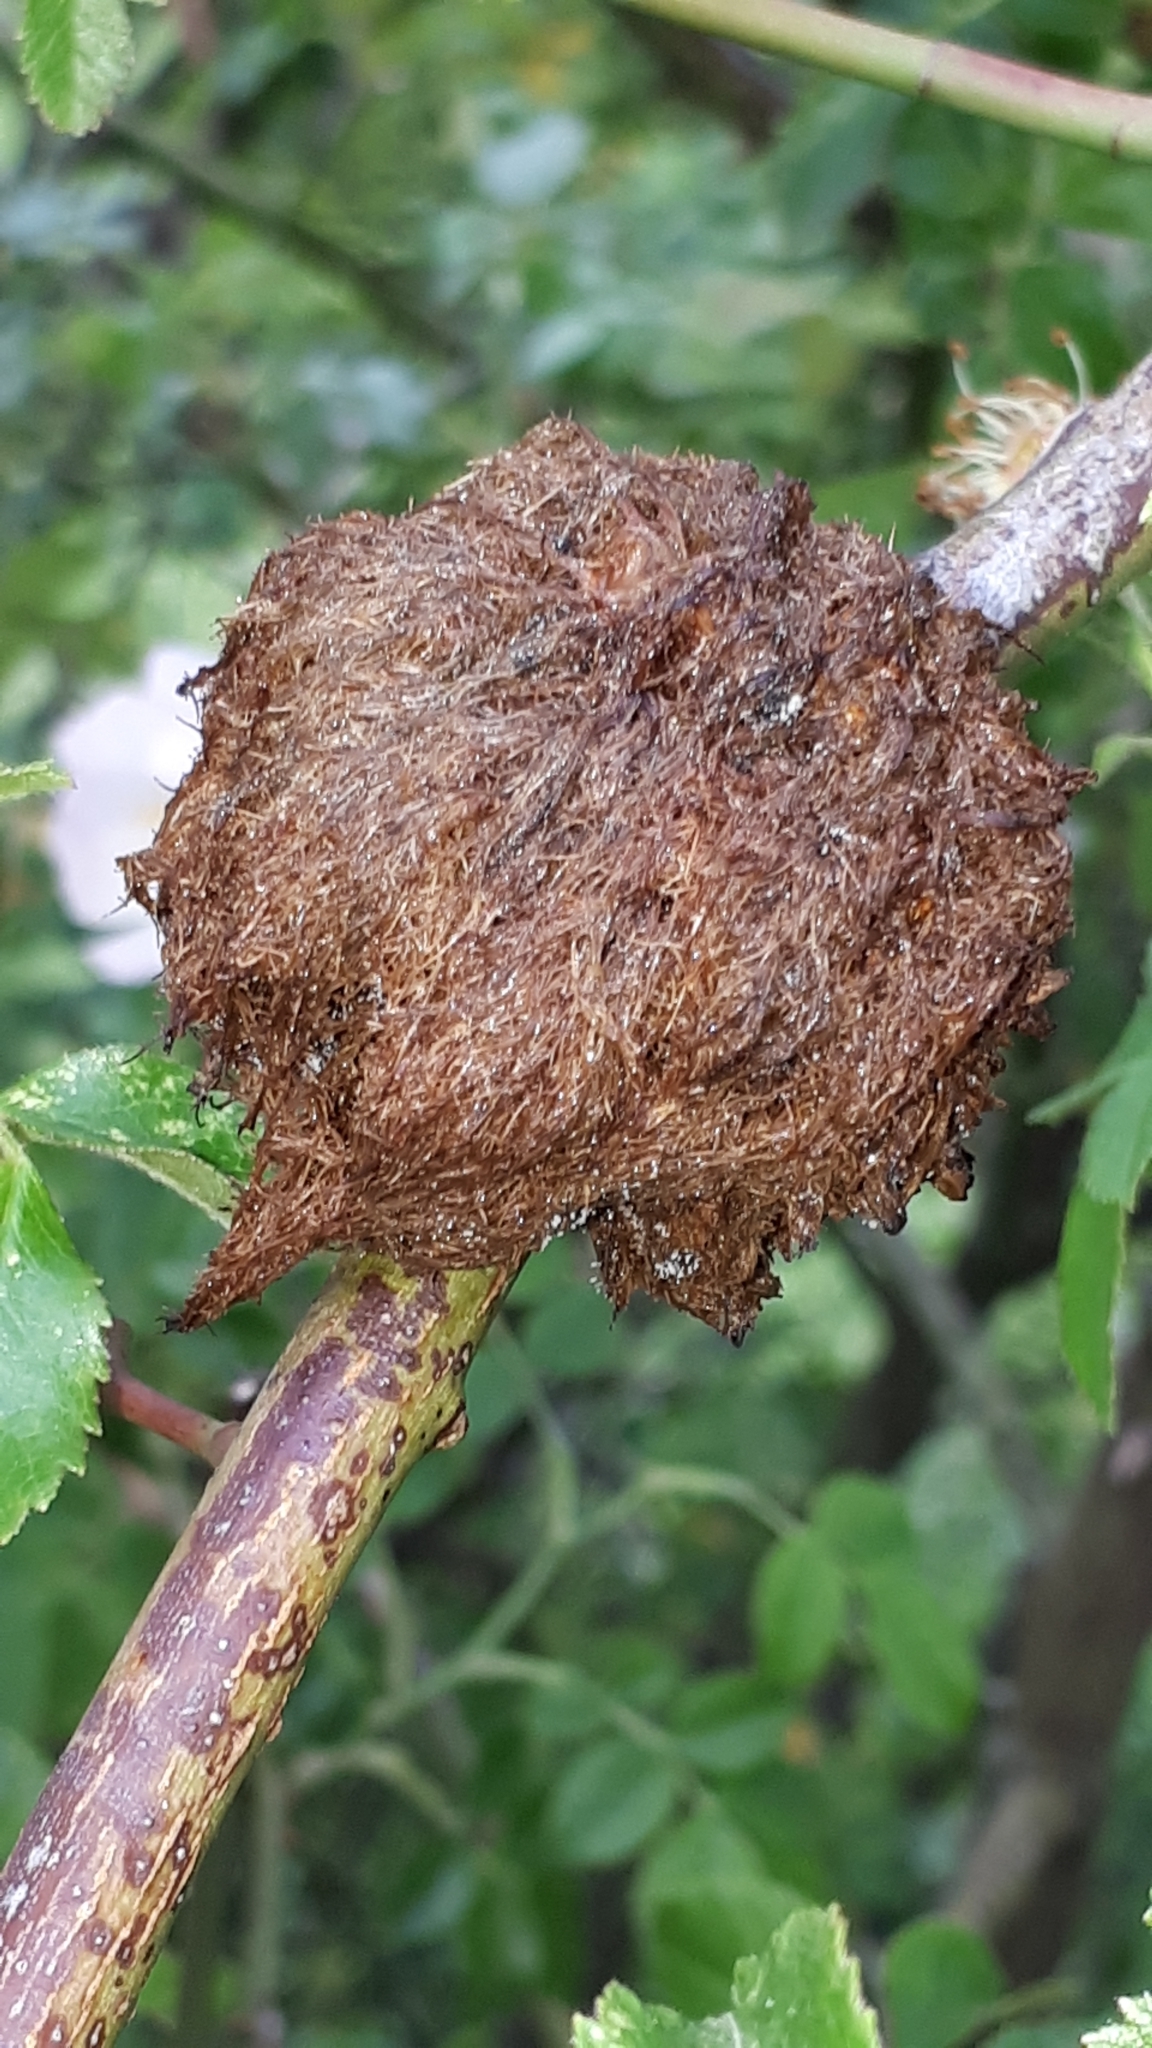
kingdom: Animalia
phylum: Arthropoda
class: Insecta
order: Hymenoptera
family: Cynipidae
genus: Diplolepis
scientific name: Diplolepis rosae
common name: Bedeguar gall
